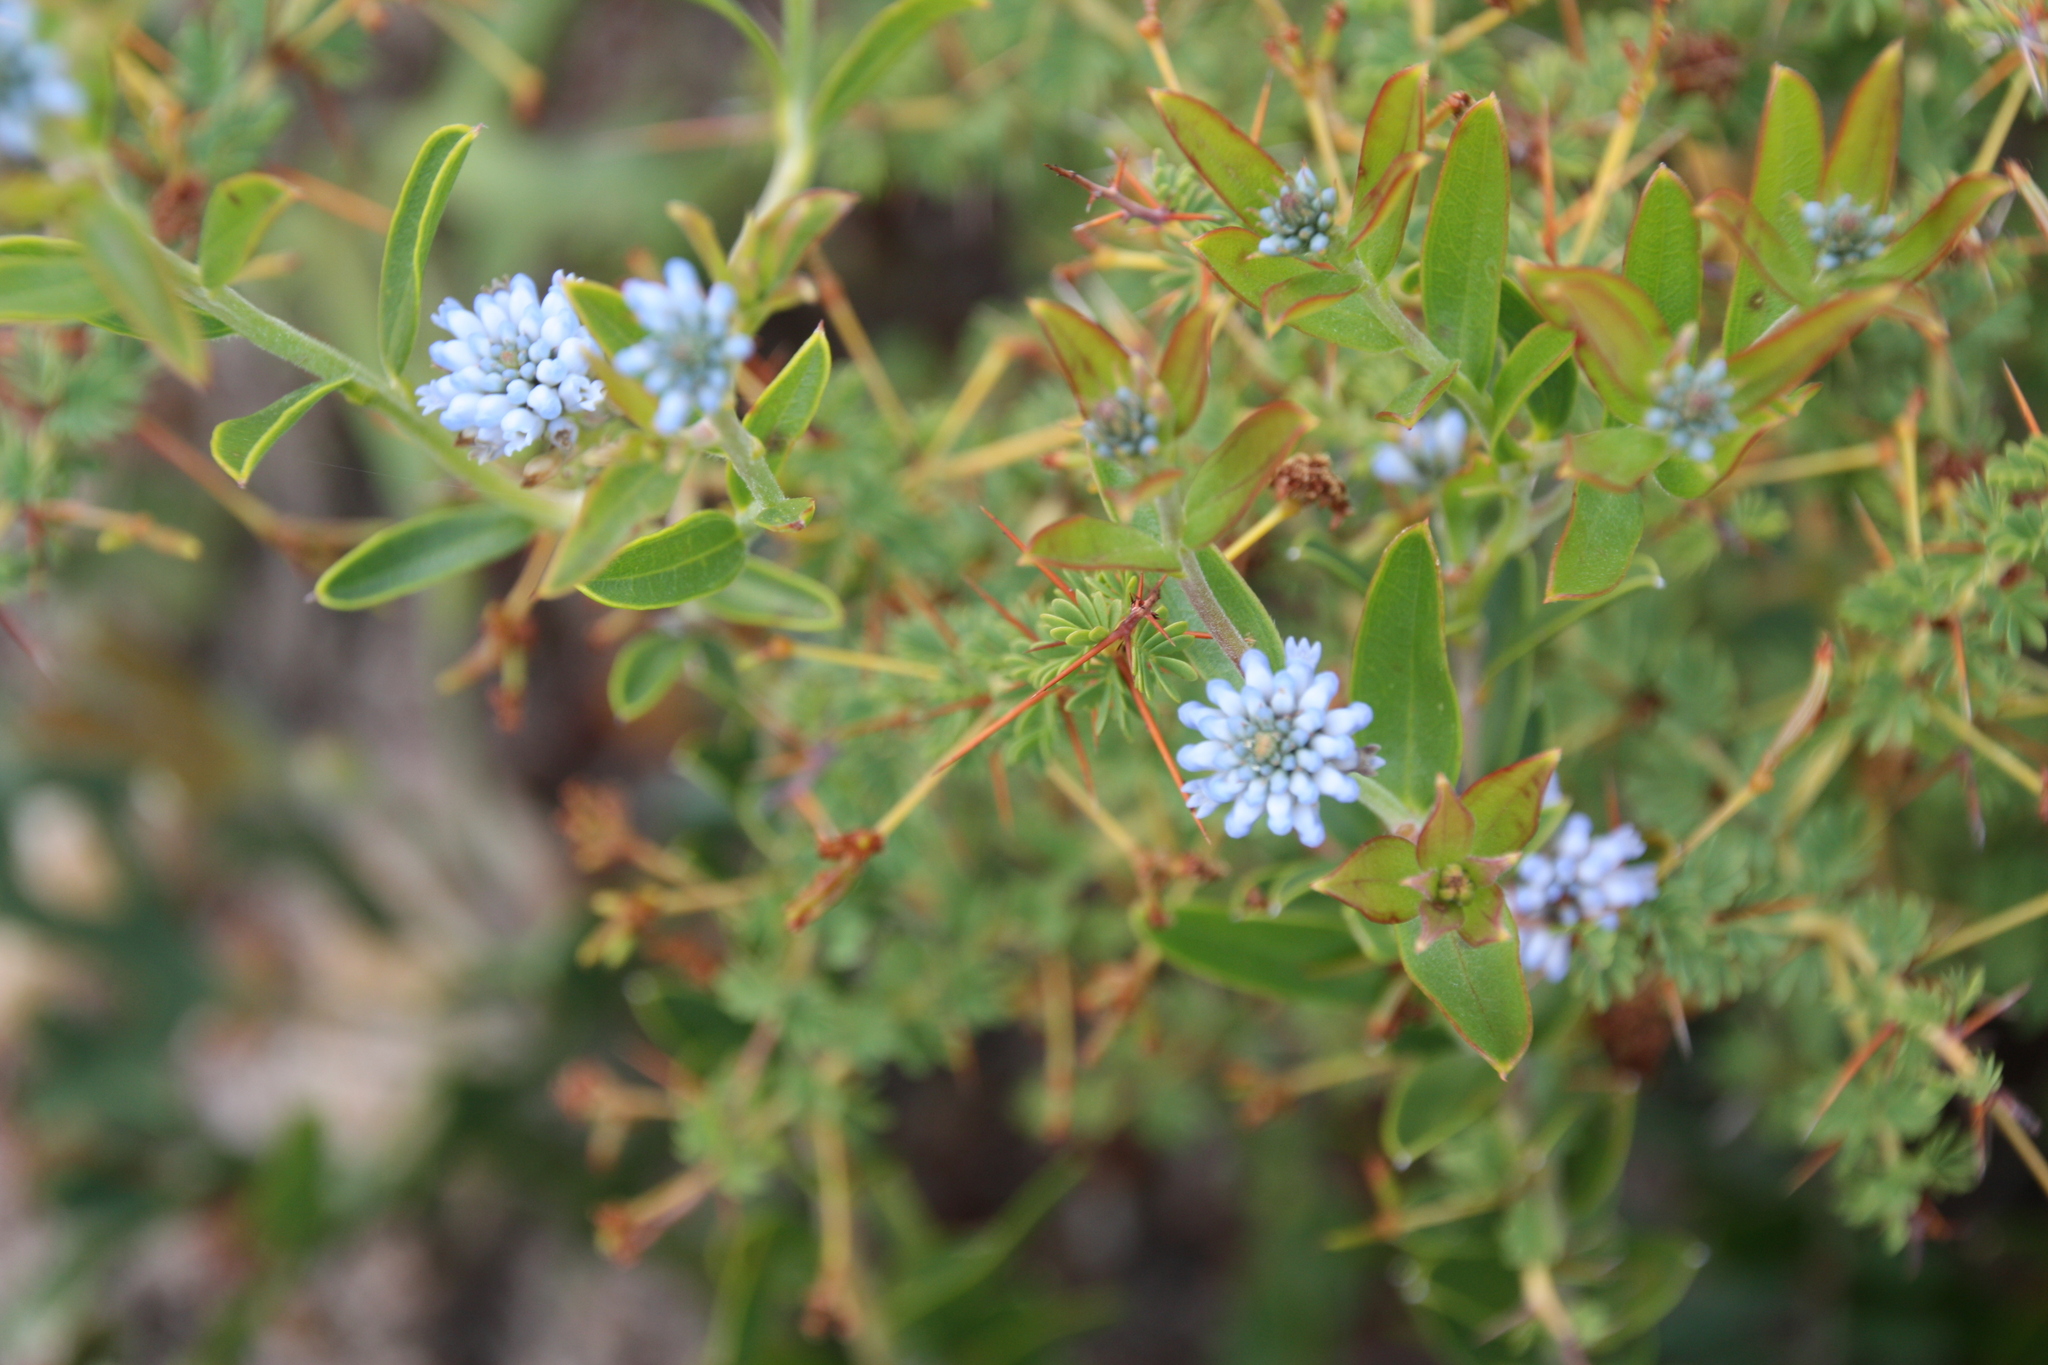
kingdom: Plantae
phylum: Tracheophyta
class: Magnoliopsida
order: Proteales
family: Proteaceae
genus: Conospermum
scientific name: Conospermum nervosum
